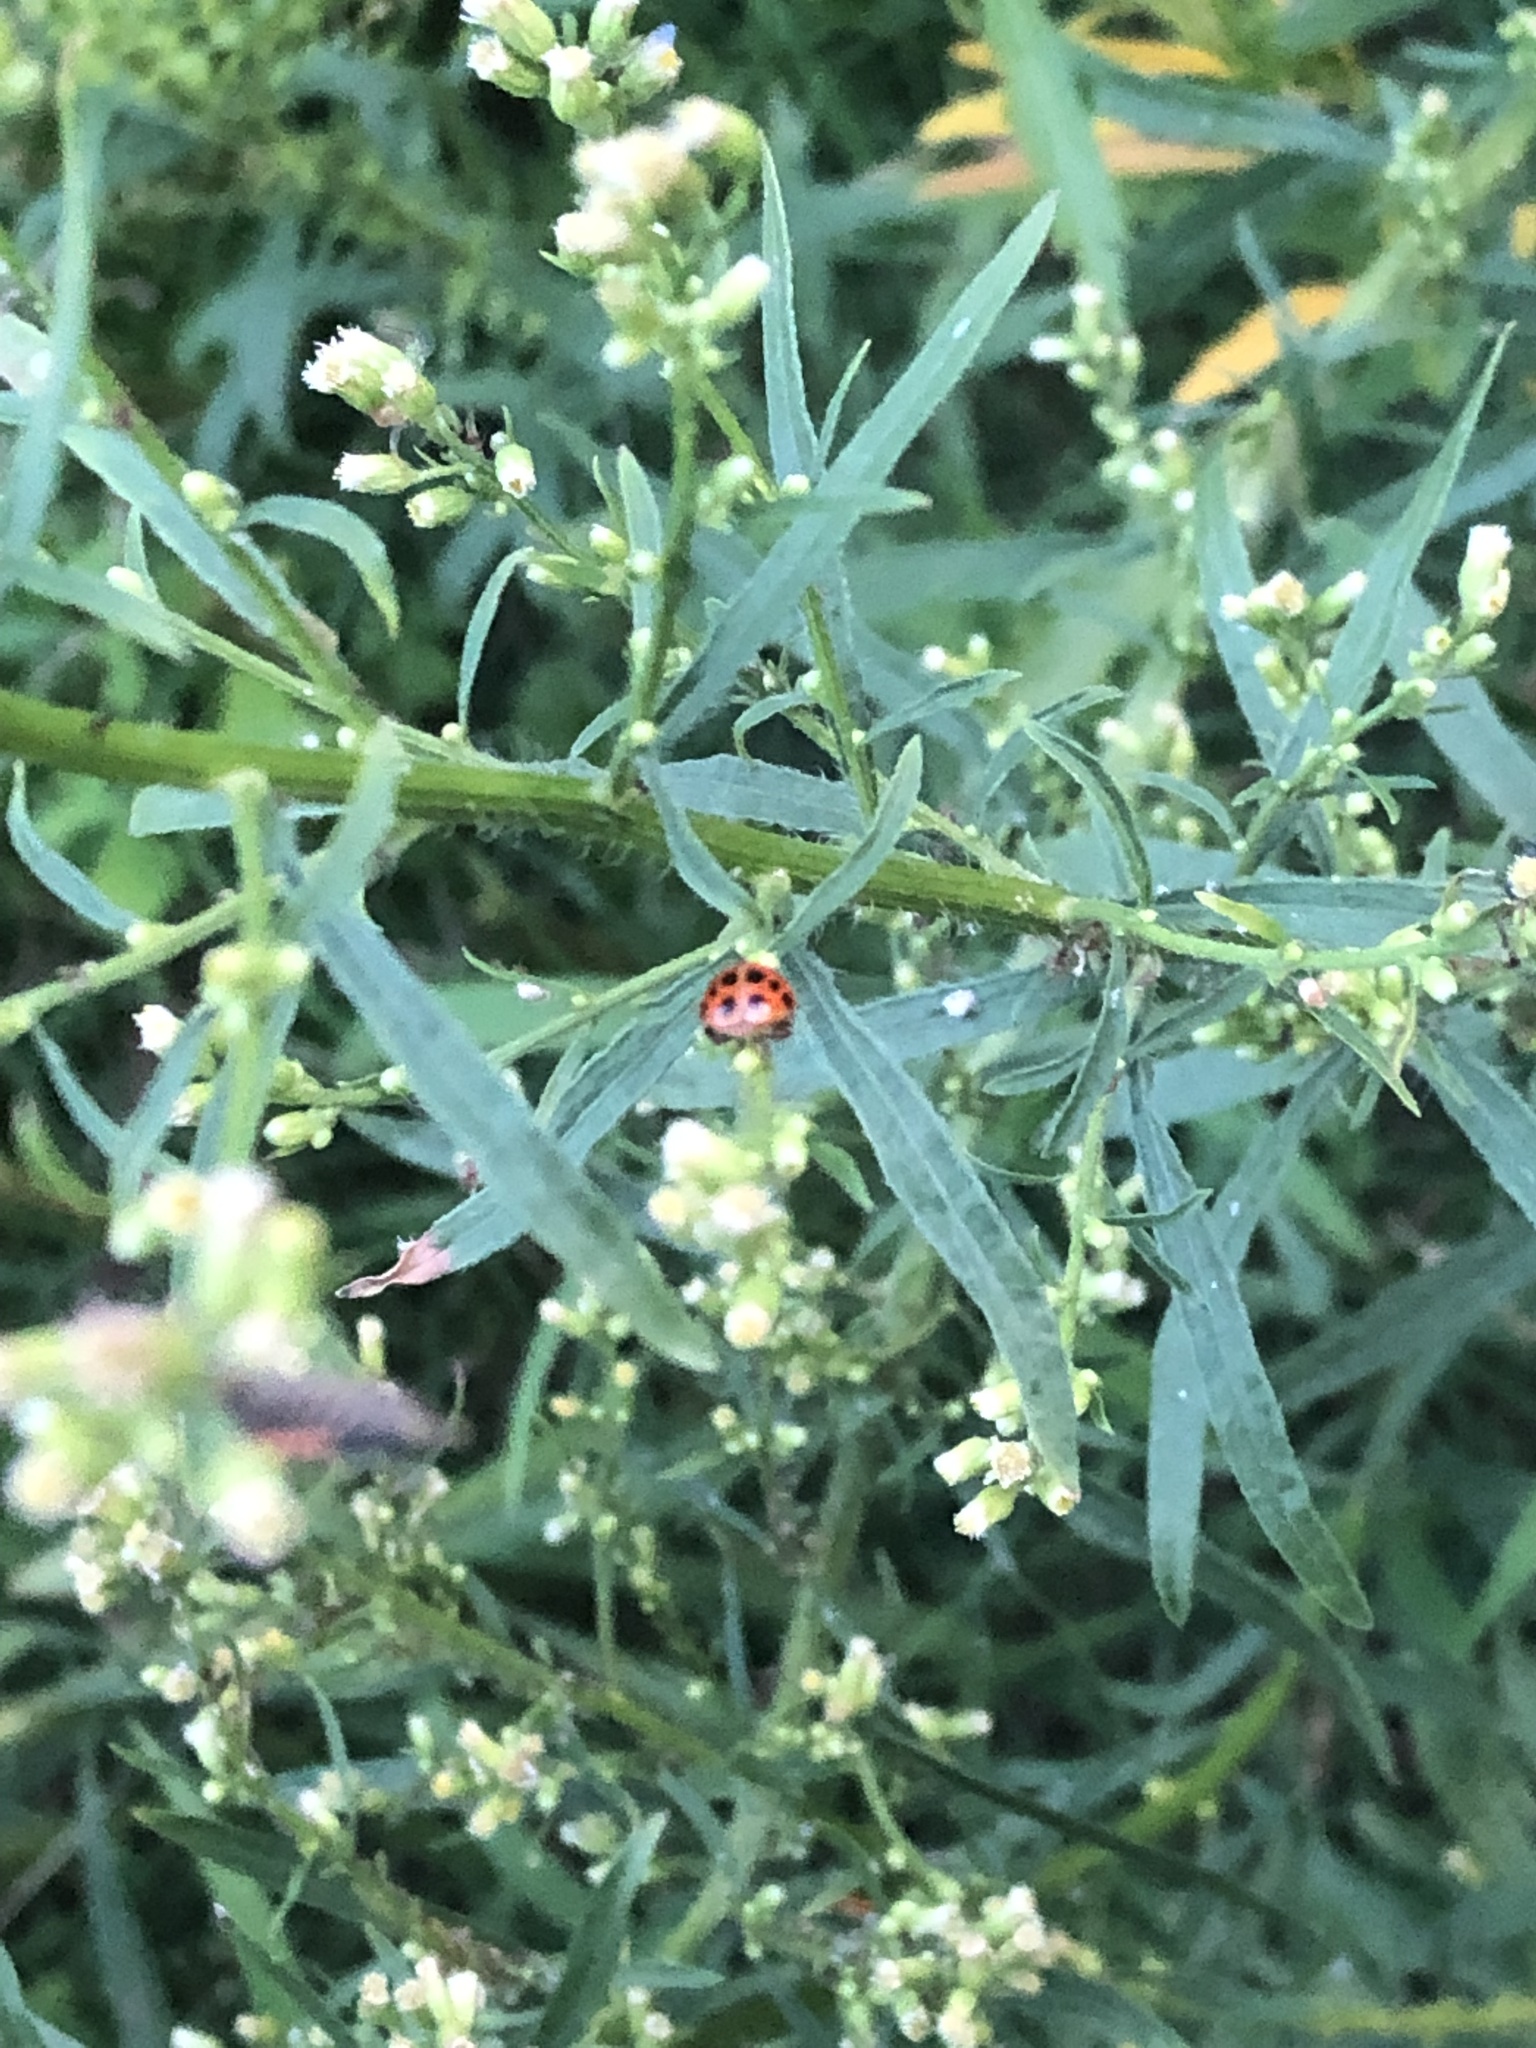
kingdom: Animalia
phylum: Arthropoda
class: Insecta
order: Coleoptera
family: Coccinellidae
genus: Harmonia
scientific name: Harmonia axyridis
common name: Harlequin ladybird
